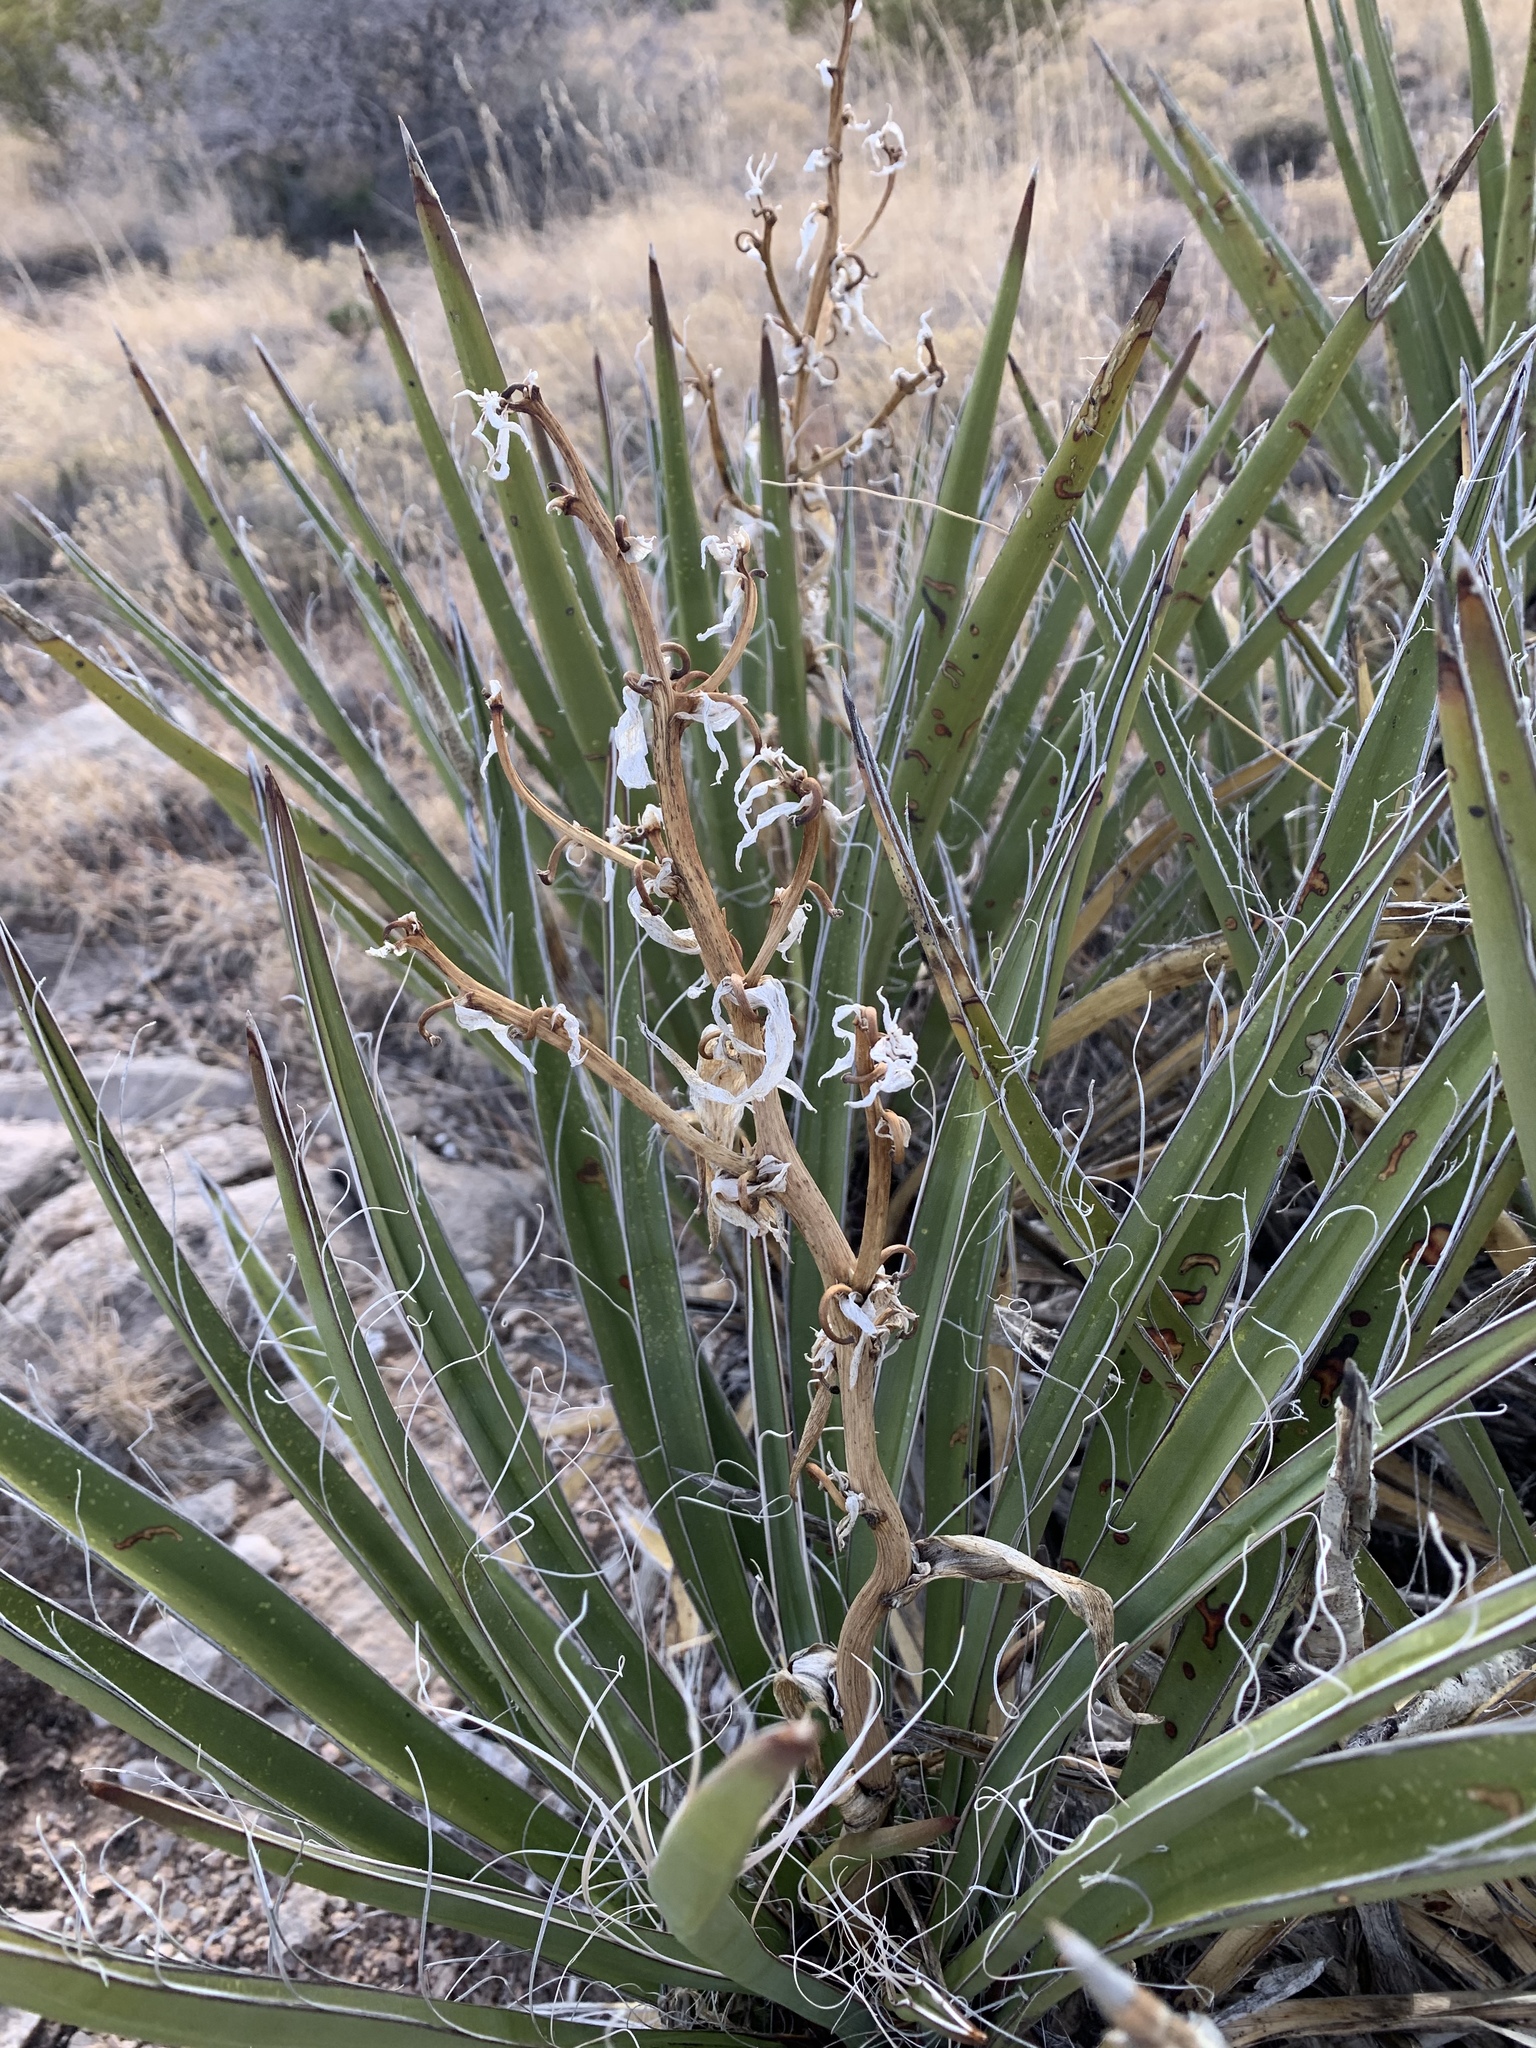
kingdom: Plantae
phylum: Tracheophyta
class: Liliopsida
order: Asparagales
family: Asparagaceae
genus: Yucca
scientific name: Yucca baccata
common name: Banana yucca
